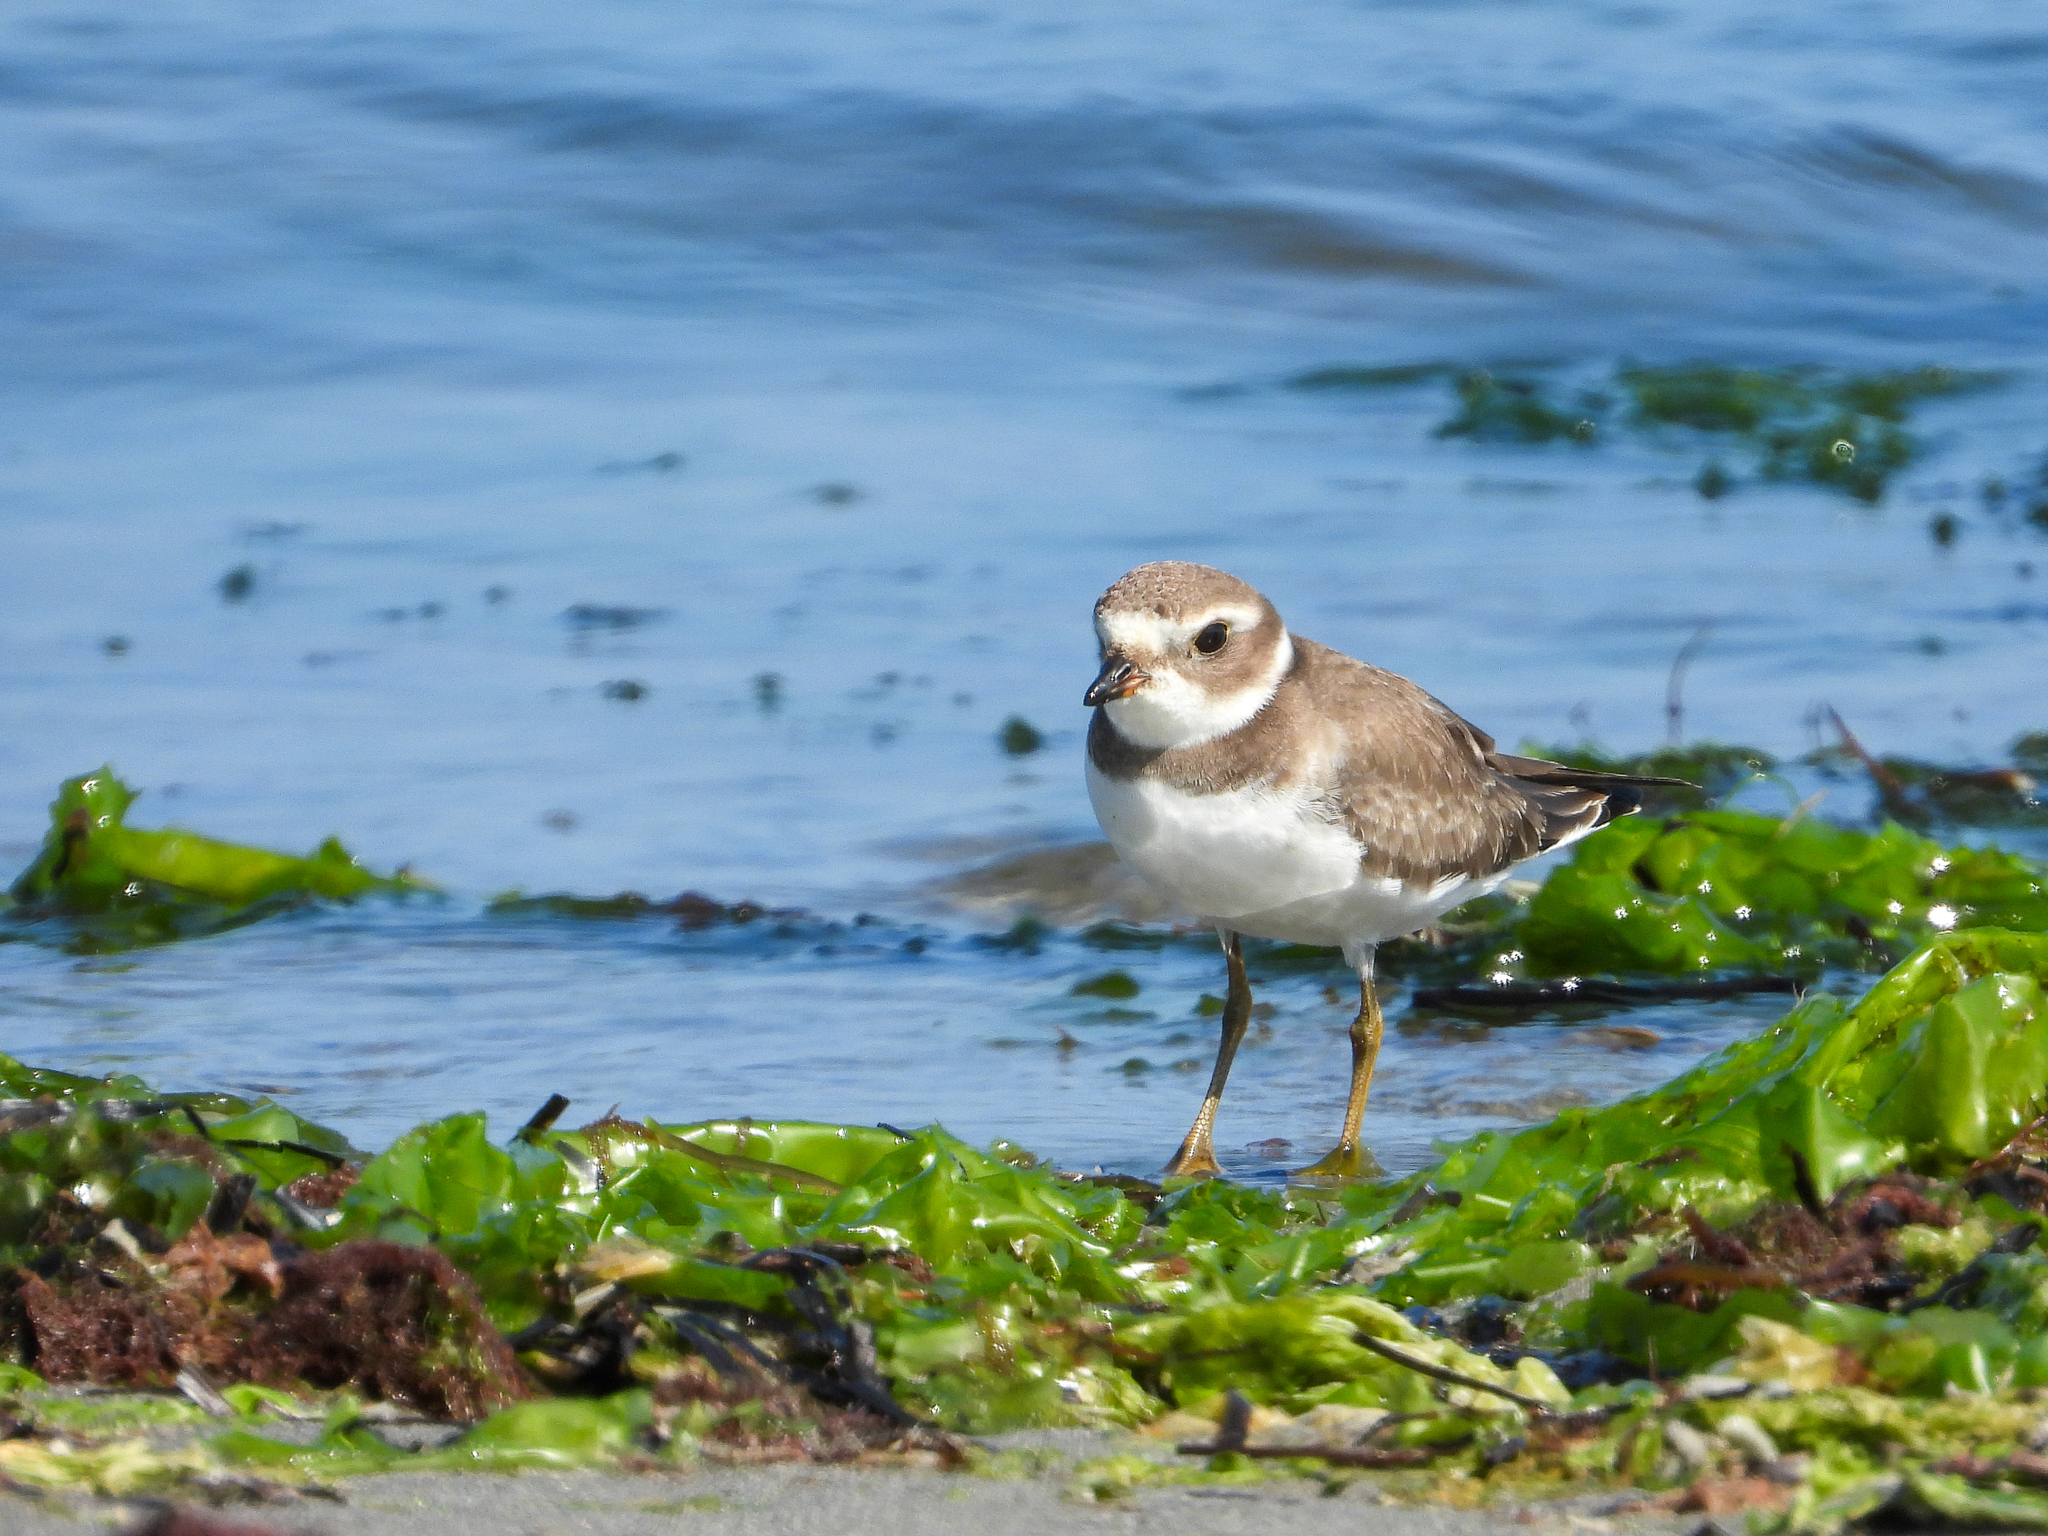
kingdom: Animalia
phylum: Chordata
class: Aves
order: Charadriiformes
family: Charadriidae
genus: Charadrius
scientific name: Charadrius semipalmatus
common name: Semipalmated plover
